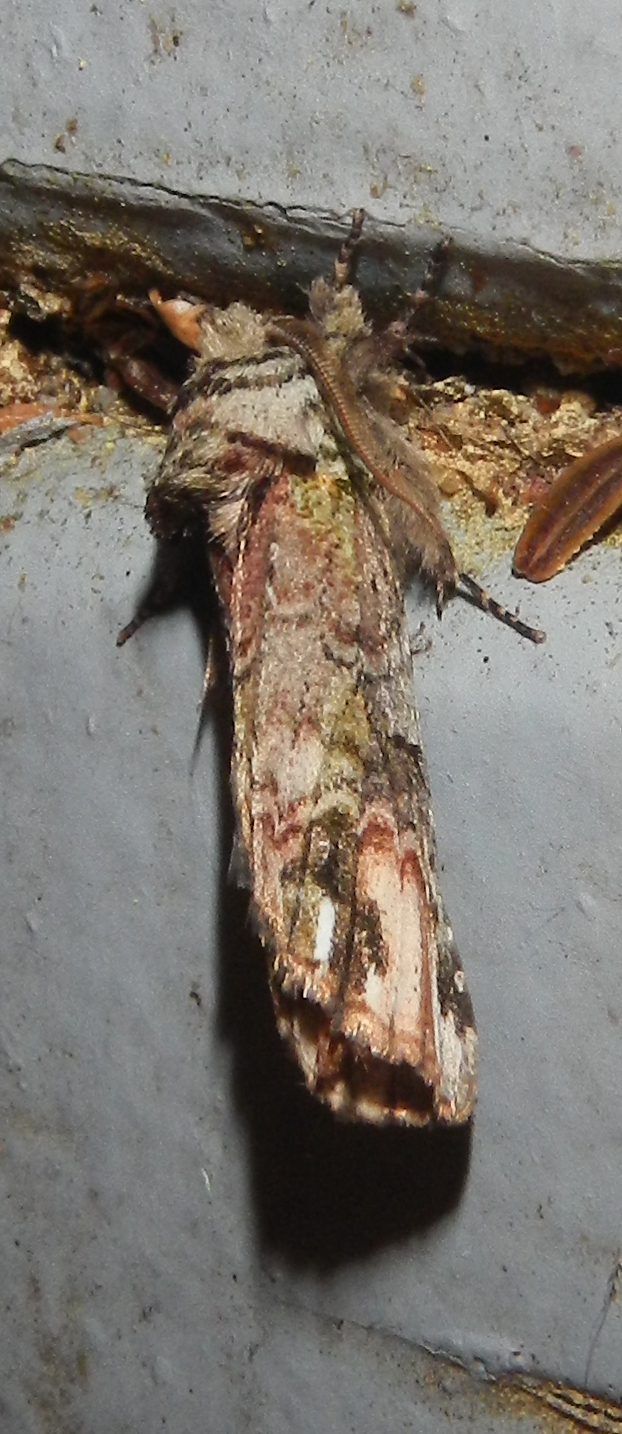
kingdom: Animalia
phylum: Arthropoda
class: Insecta
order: Lepidoptera
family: Notodontidae
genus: Schizura
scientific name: Schizura
